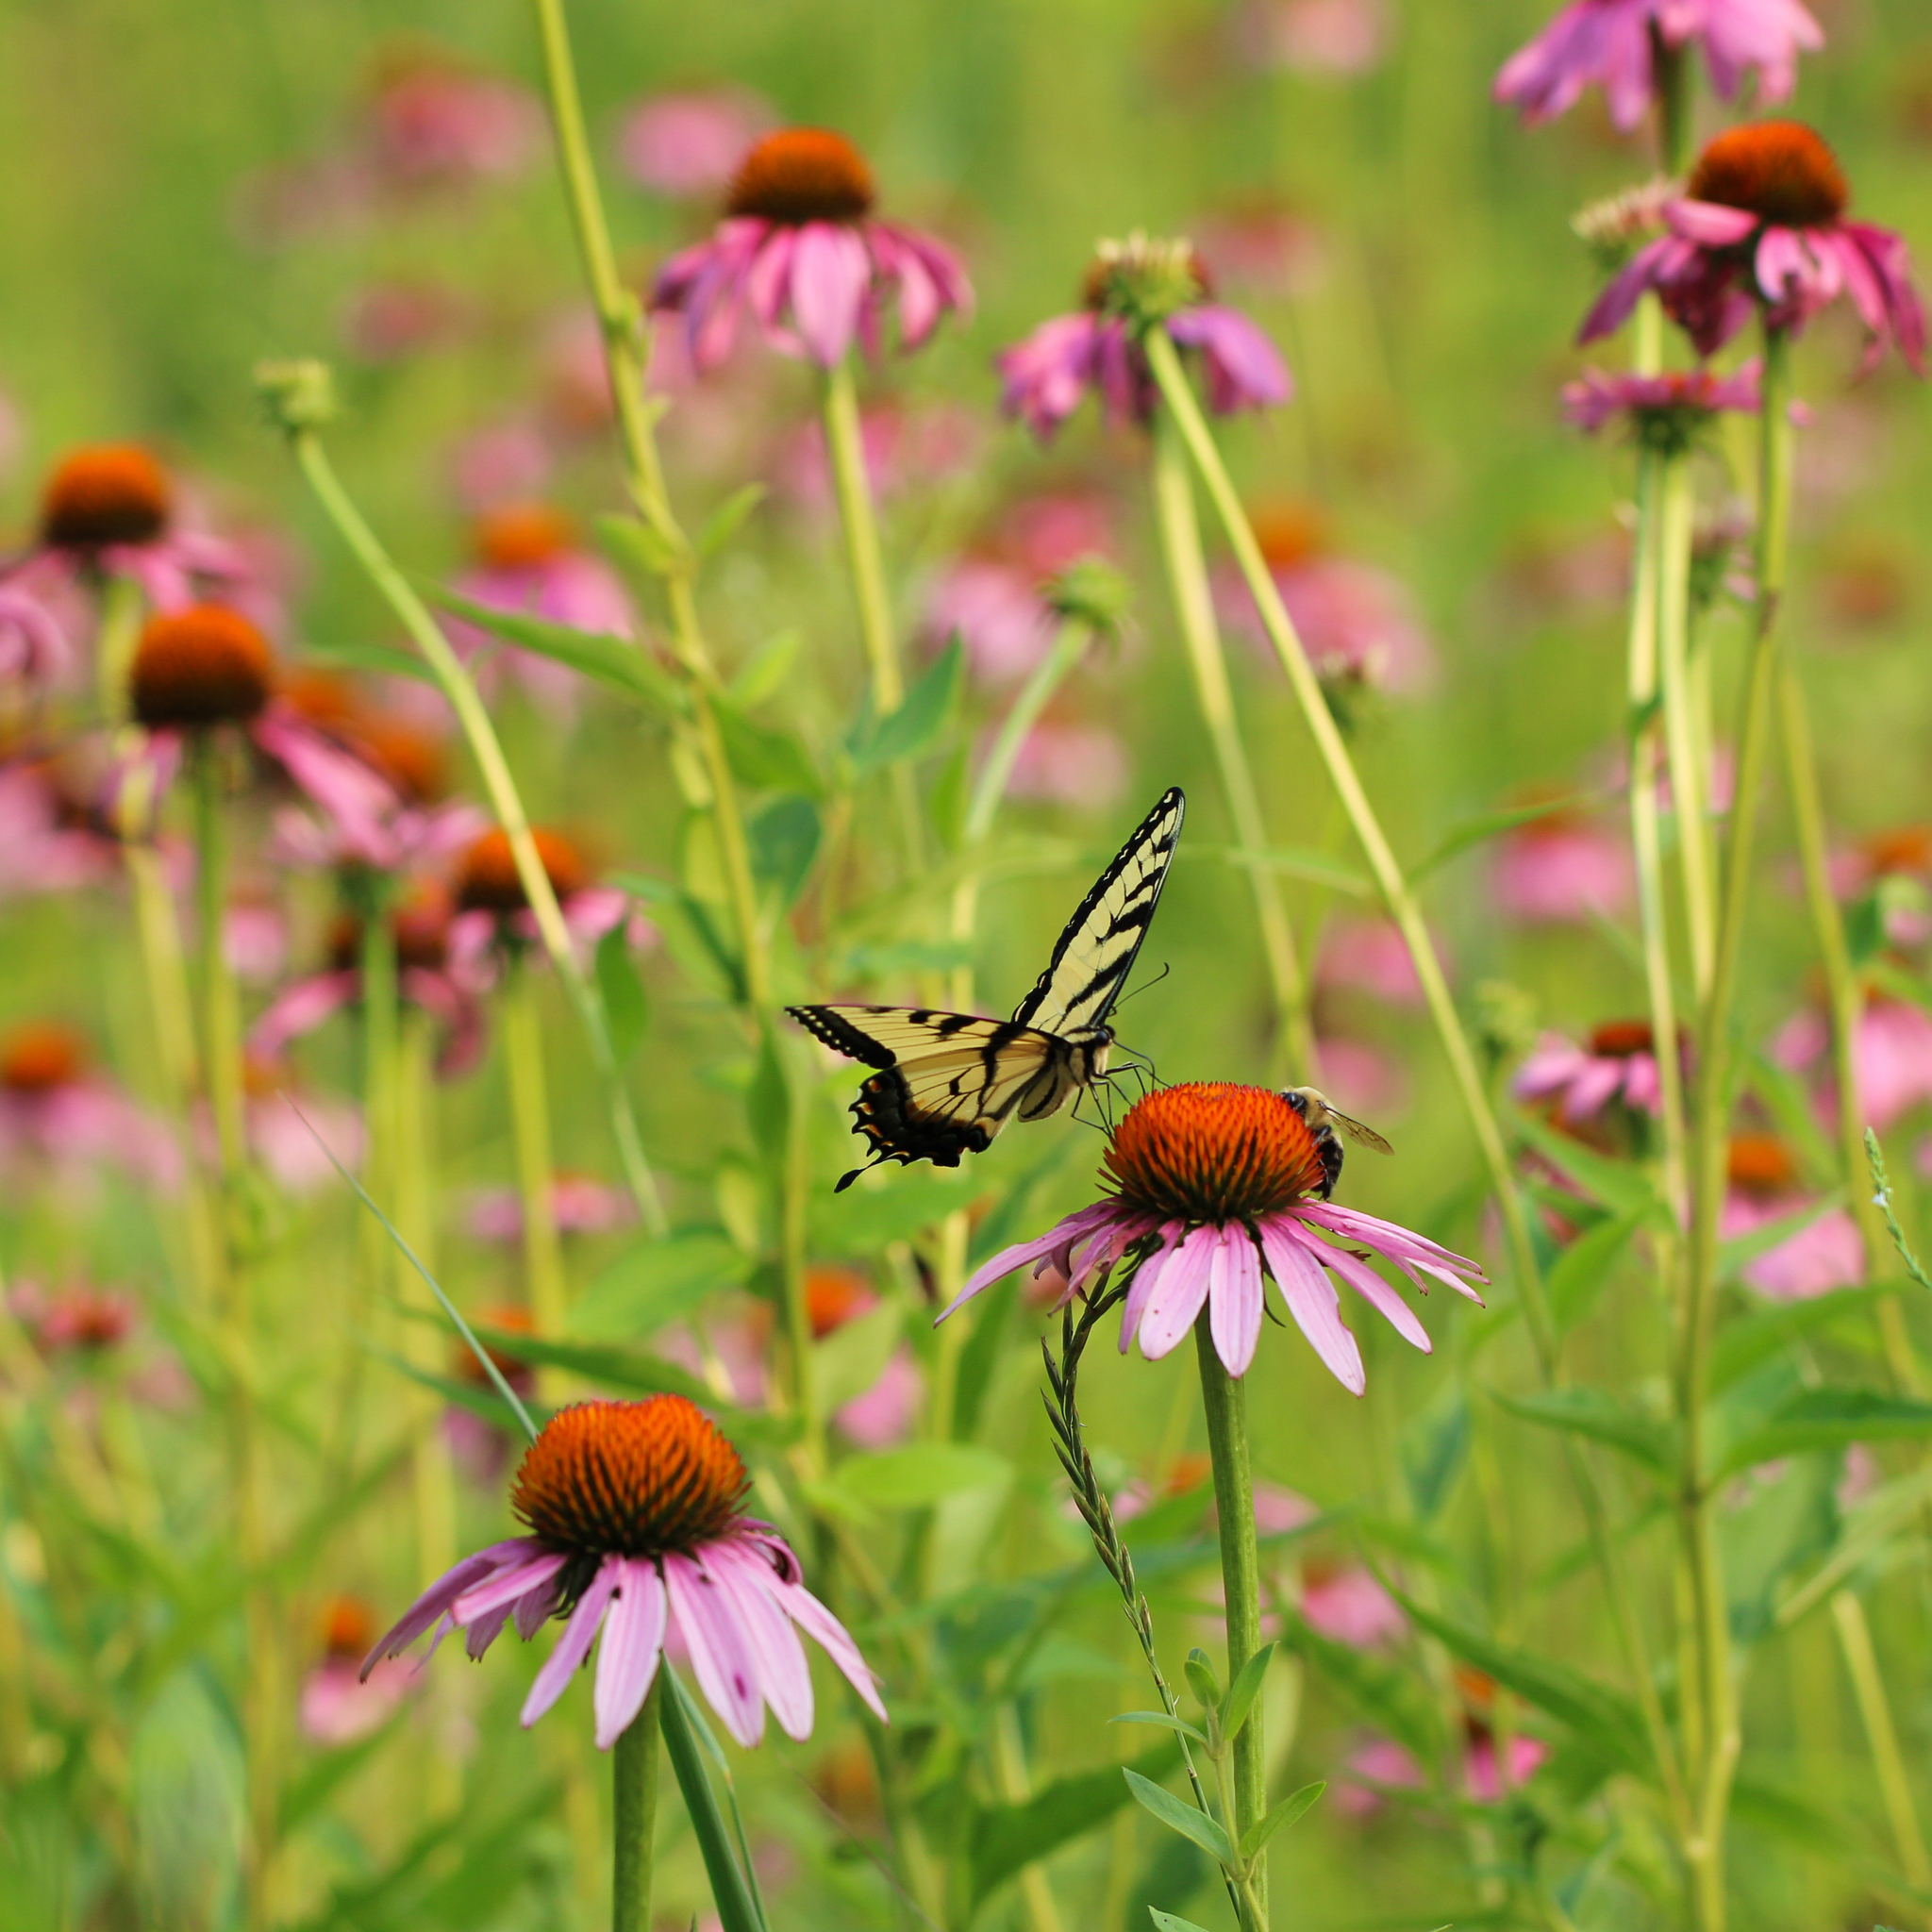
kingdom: Animalia
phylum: Arthropoda
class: Insecta
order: Lepidoptera
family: Papilionidae
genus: Papilio
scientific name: Papilio glaucus
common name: Tiger swallowtail
